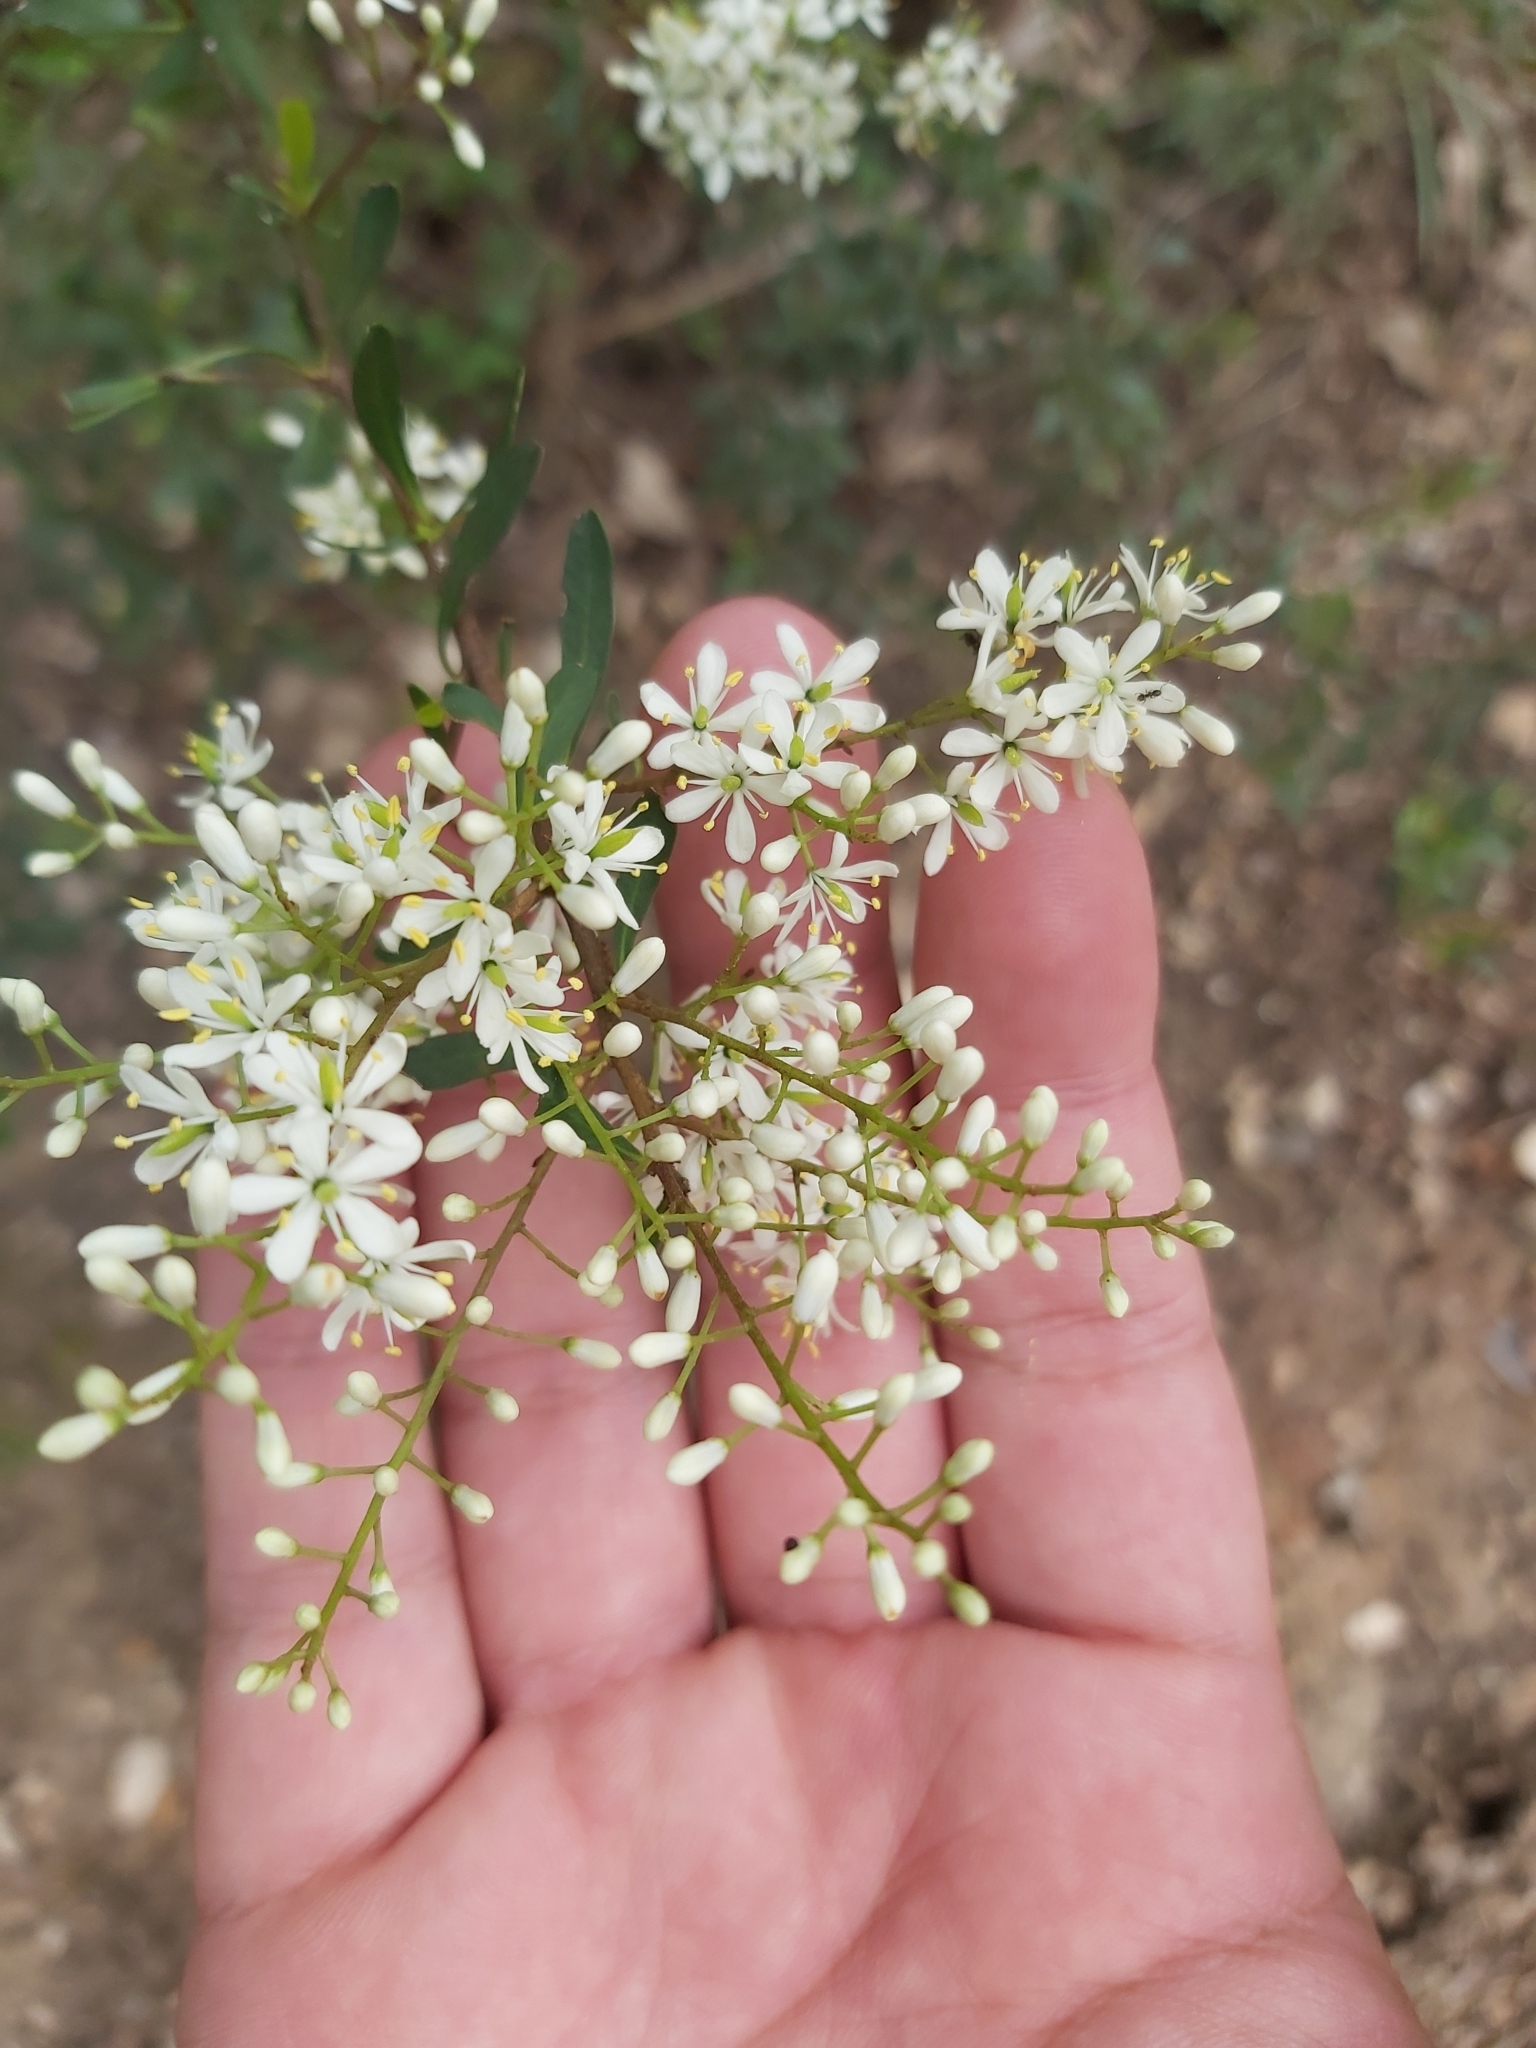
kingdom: Plantae
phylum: Tracheophyta
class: Magnoliopsida
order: Apiales
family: Pittosporaceae
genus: Bursaria
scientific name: Bursaria spinosa
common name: Australian blackthorn
